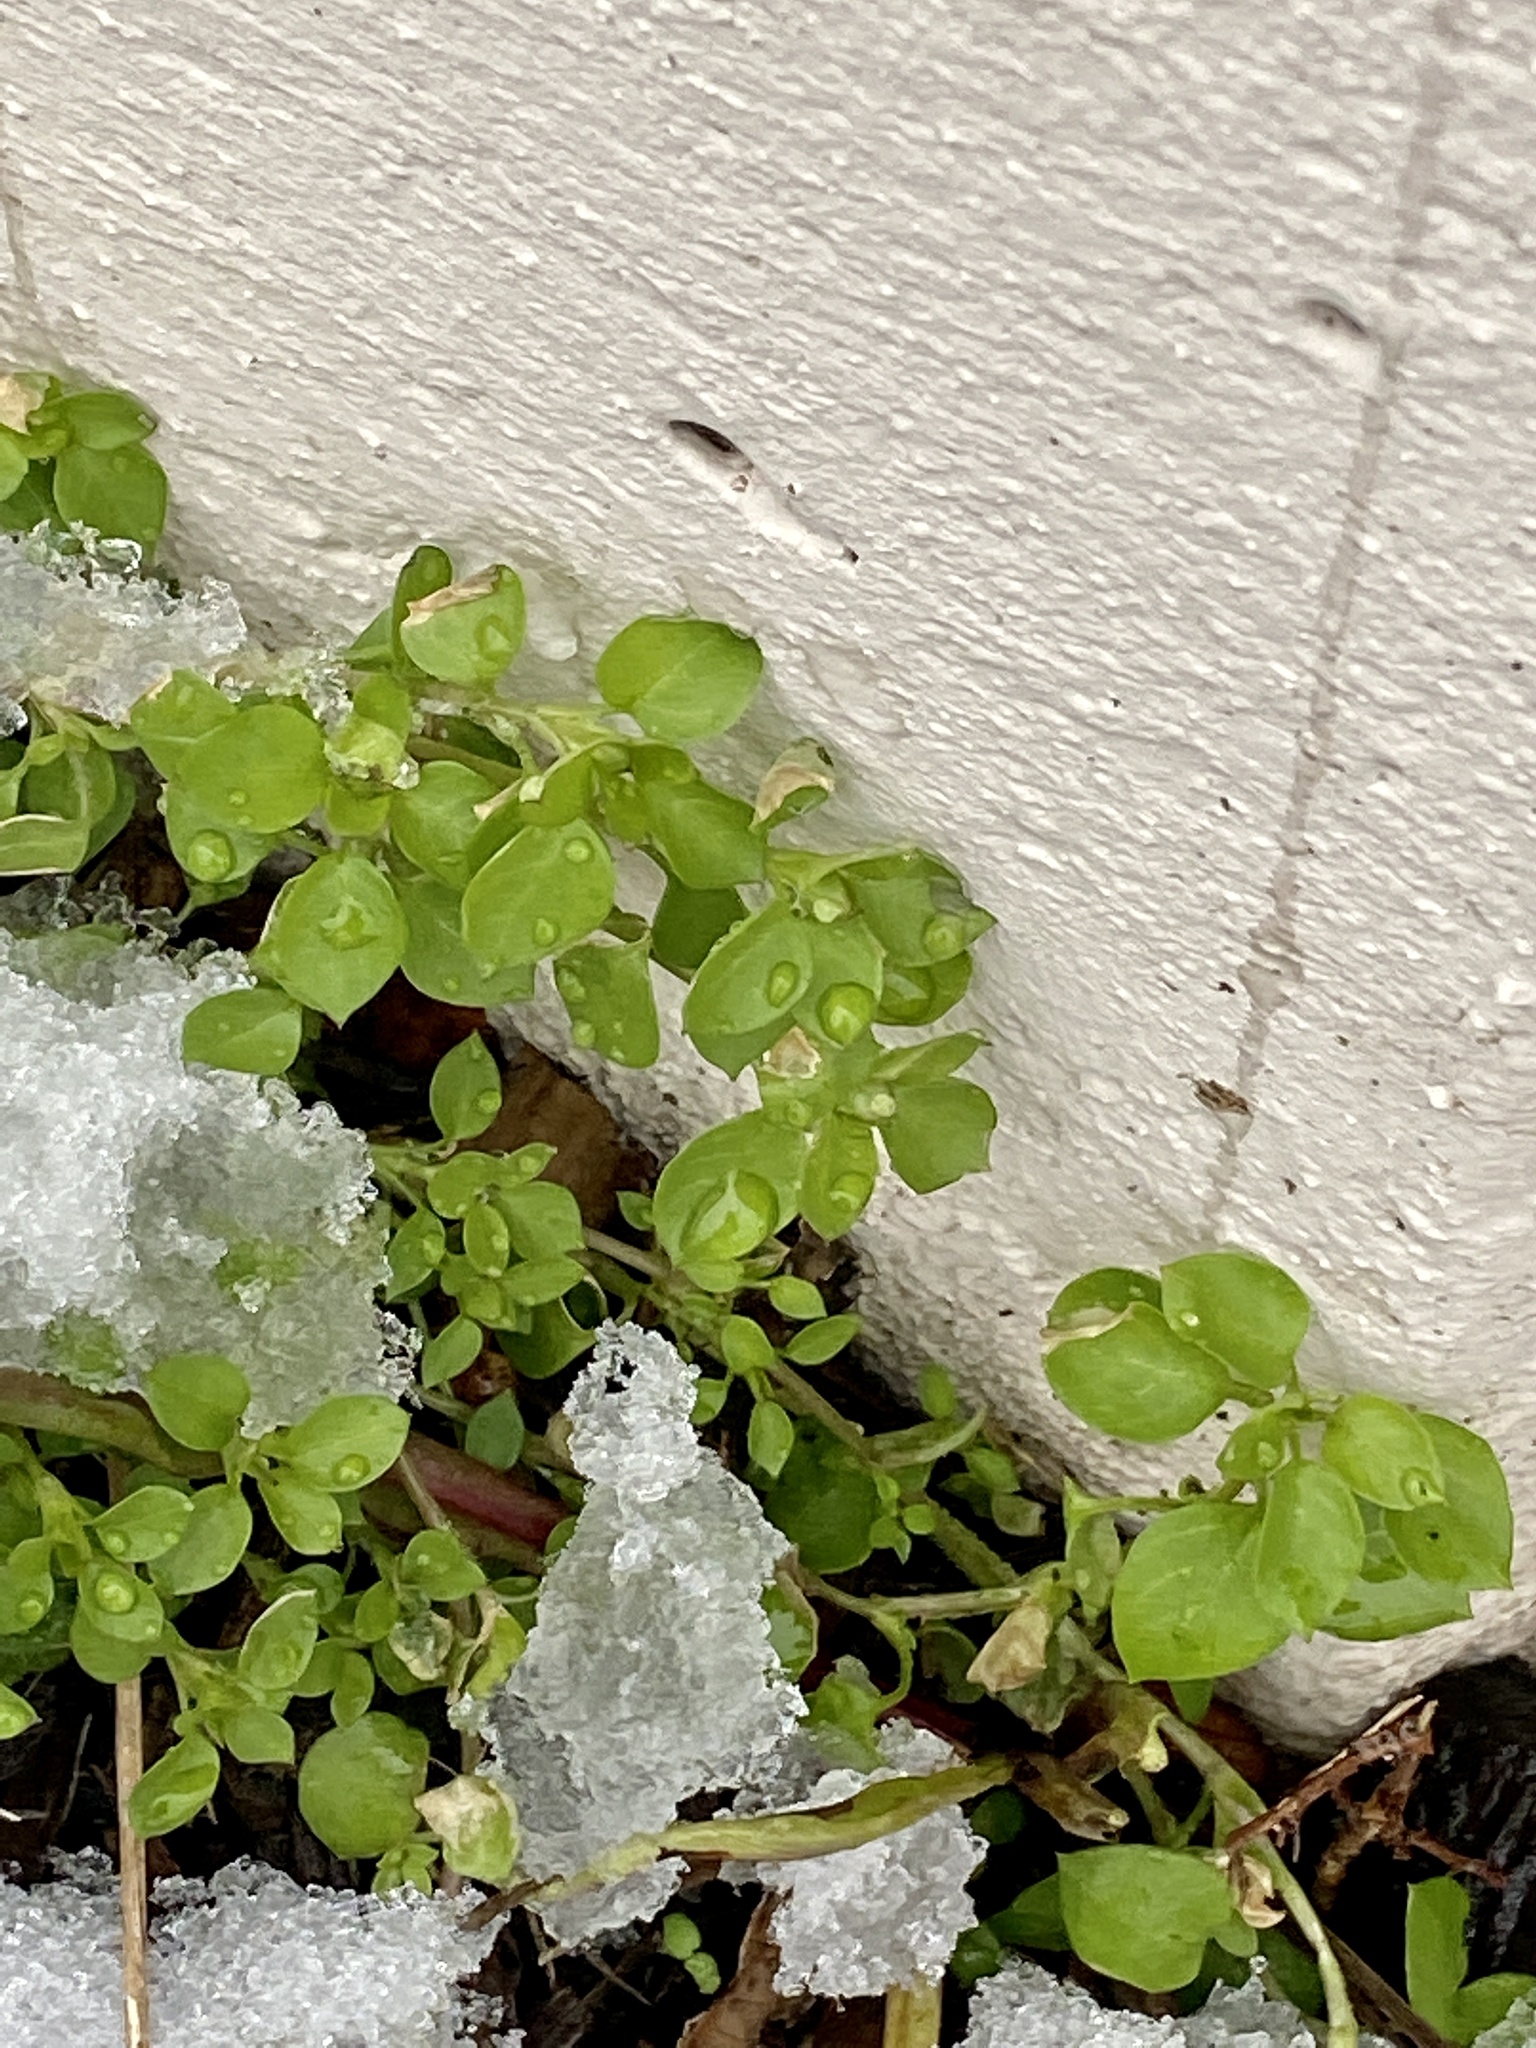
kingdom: Plantae
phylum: Tracheophyta
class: Magnoliopsida
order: Caryophyllales
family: Caryophyllaceae
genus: Stellaria
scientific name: Stellaria media
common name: Common chickweed
